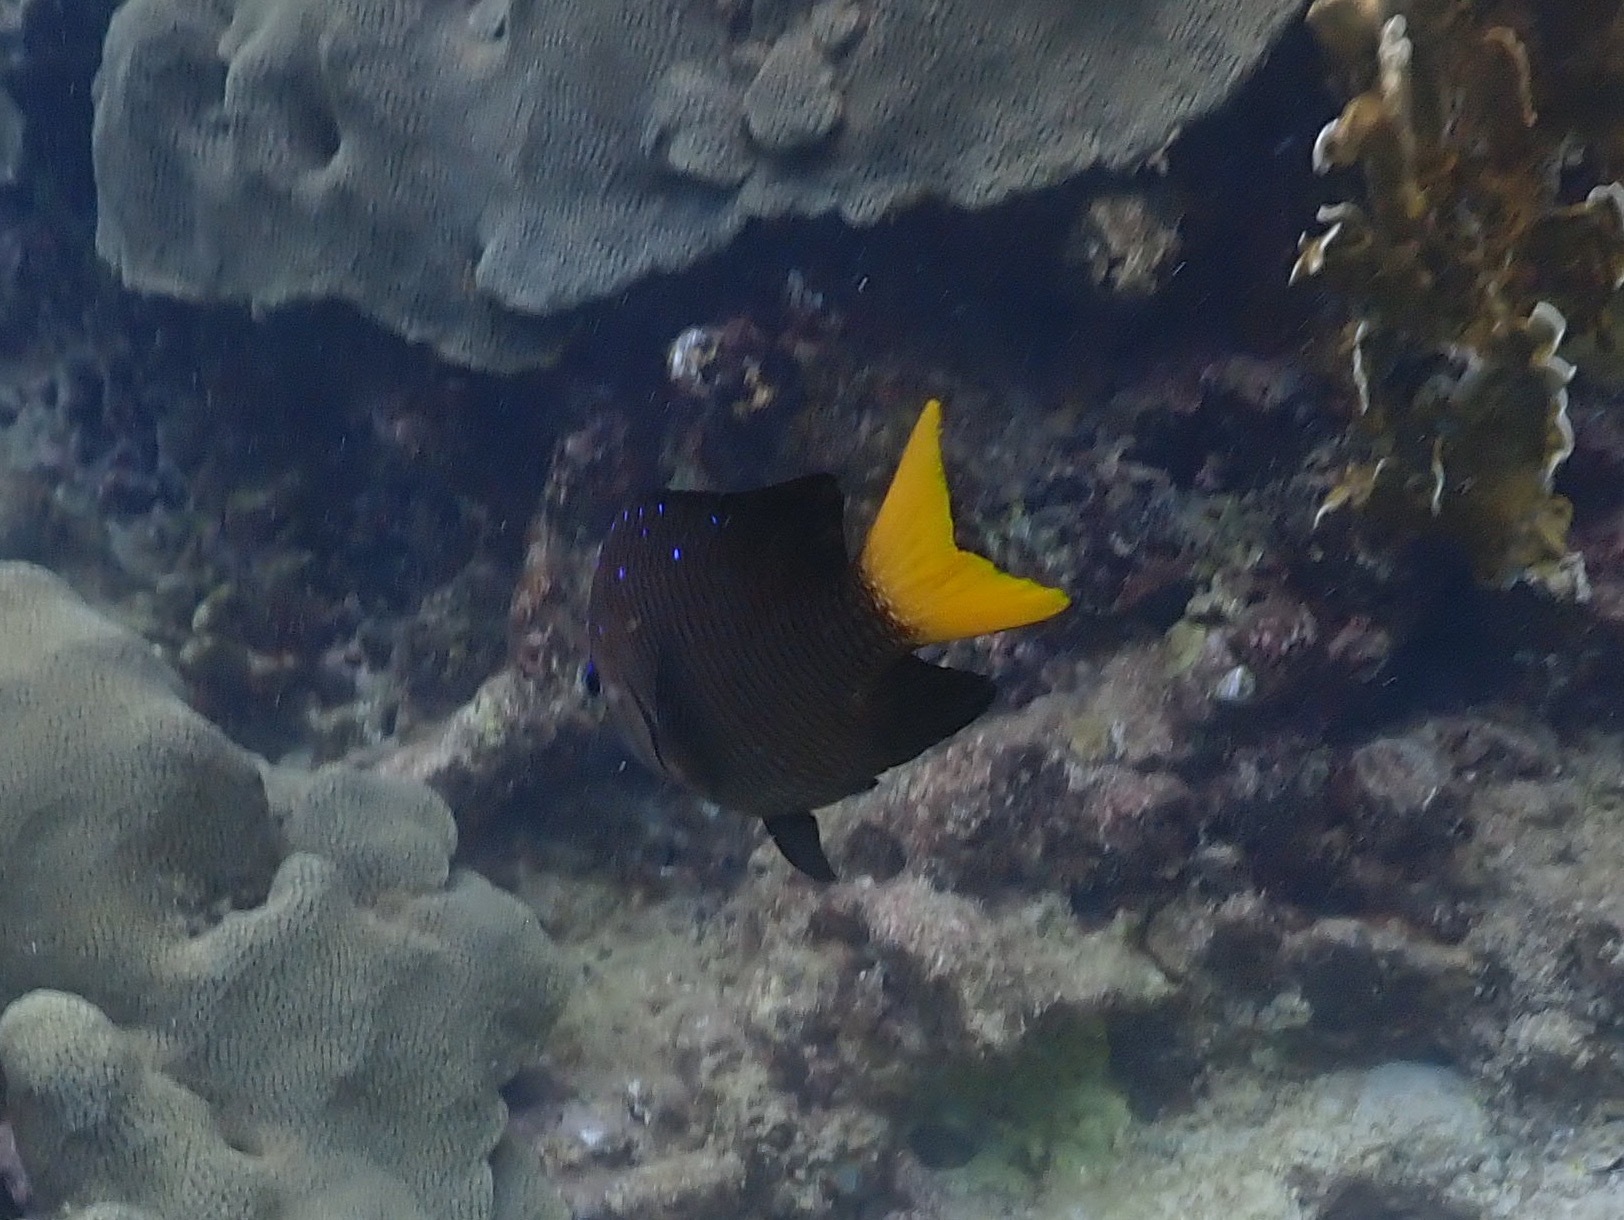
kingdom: Animalia
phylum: Chordata
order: Perciformes
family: Pomacentridae
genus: Microspathodon
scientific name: Microspathodon chrysurus
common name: Yellowtail damselfish
